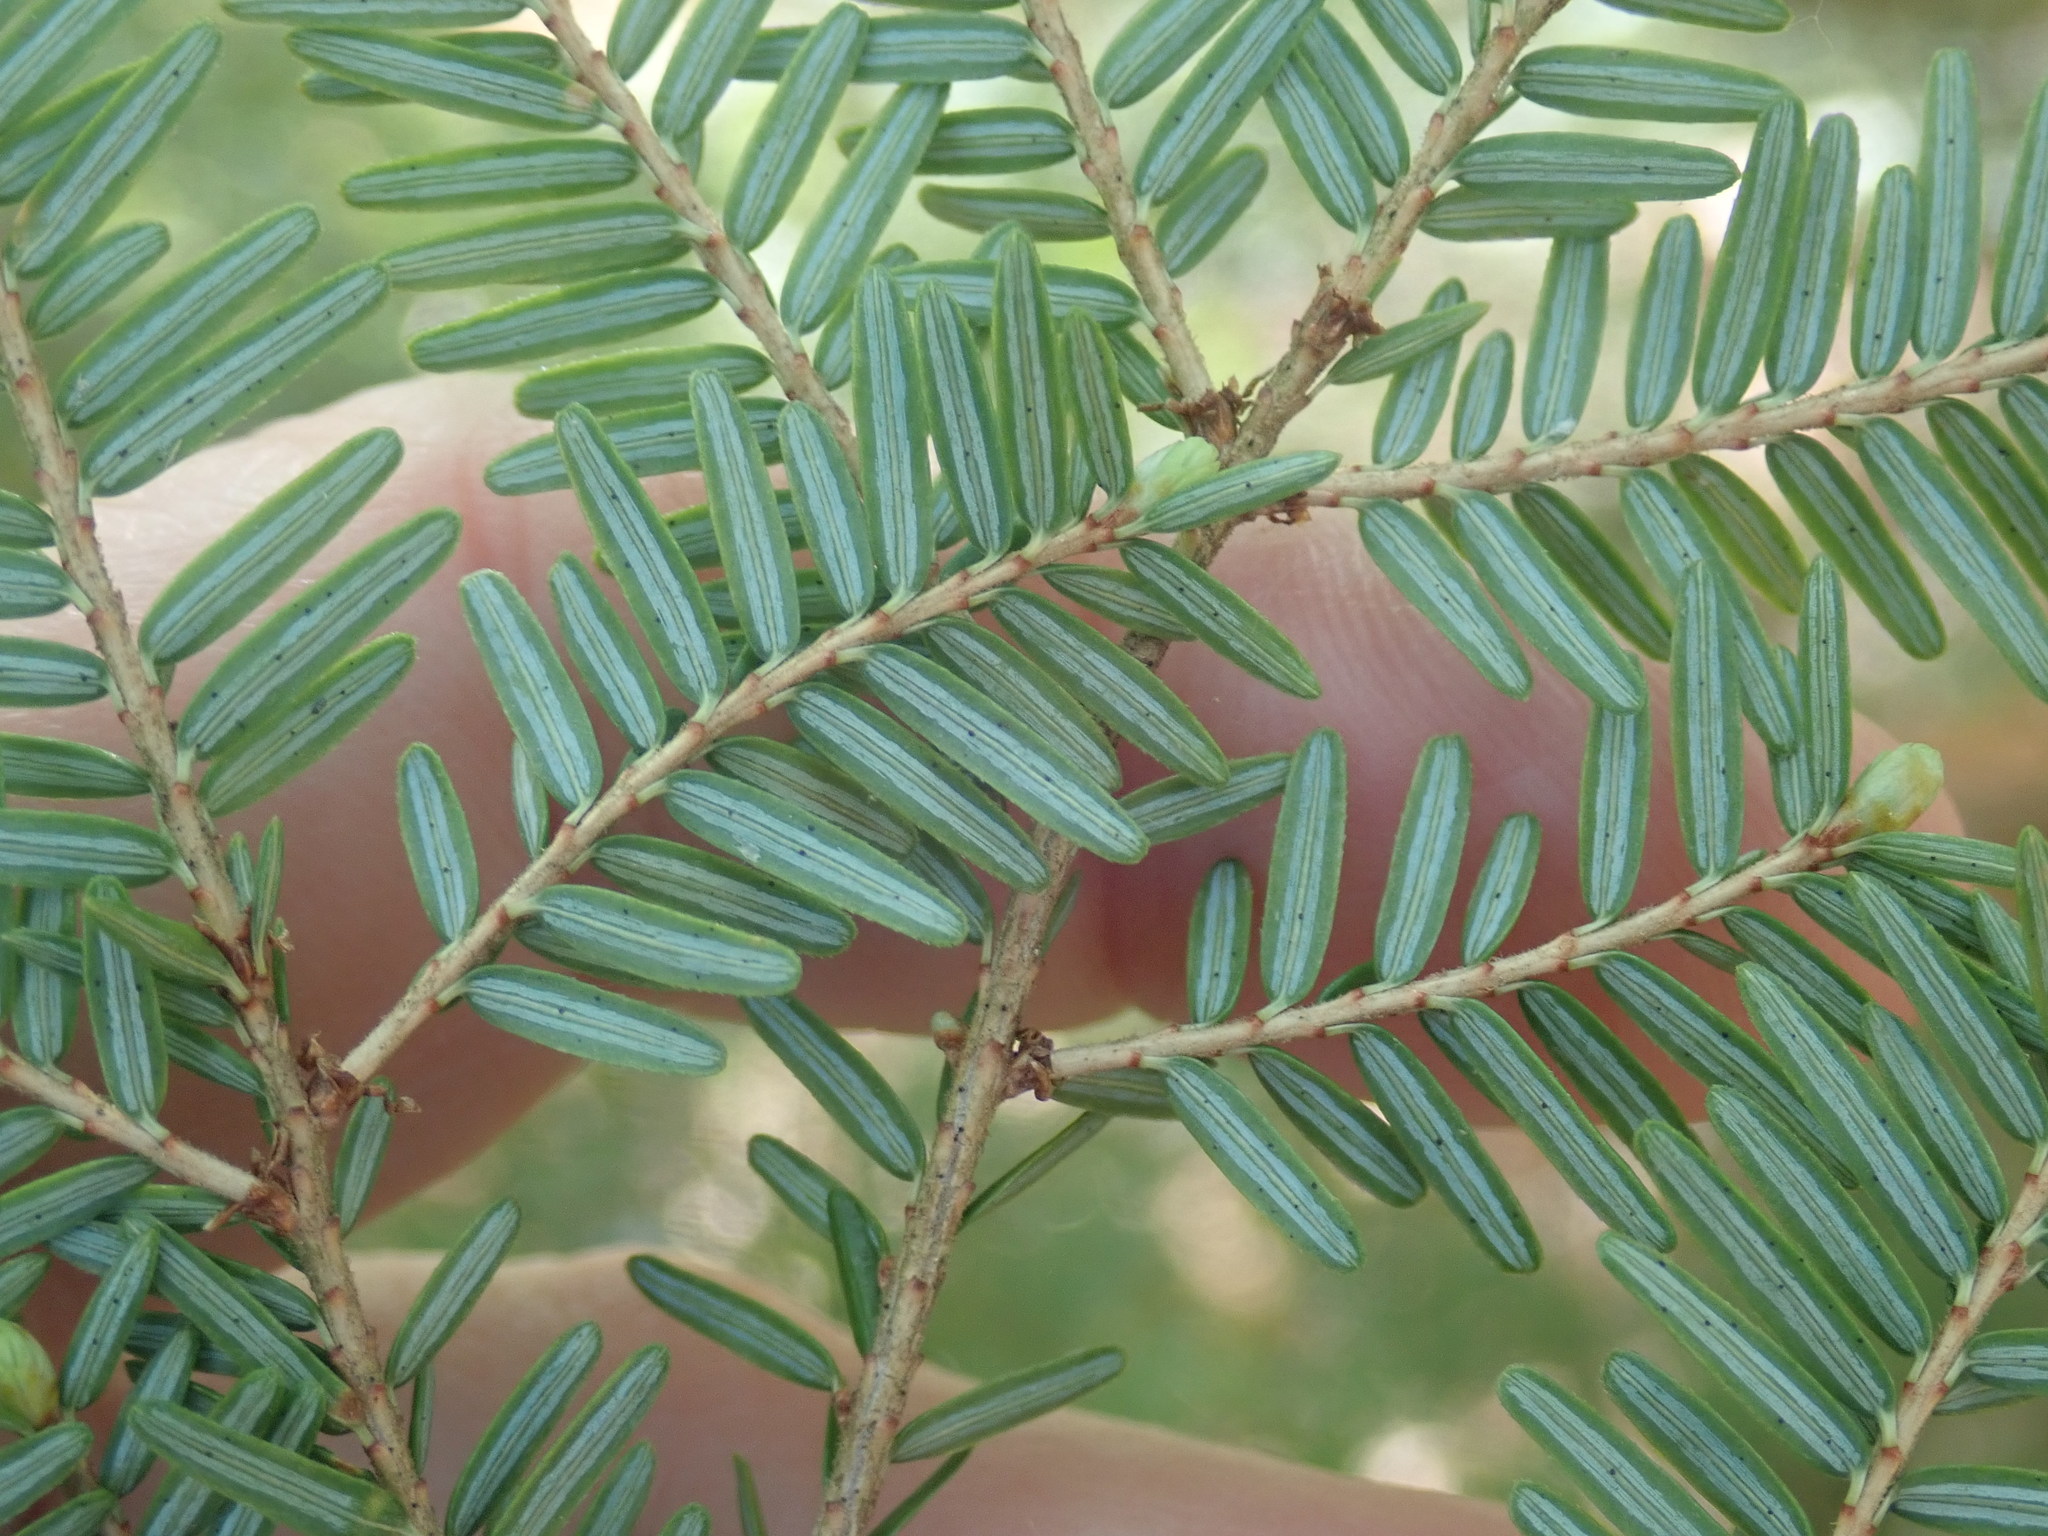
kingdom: Plantae
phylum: Tracheophyta
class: Pinopsida
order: Pinales
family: Pinaceae
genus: Tsuga
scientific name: Tsuga canadensis
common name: Eastern hemlock
